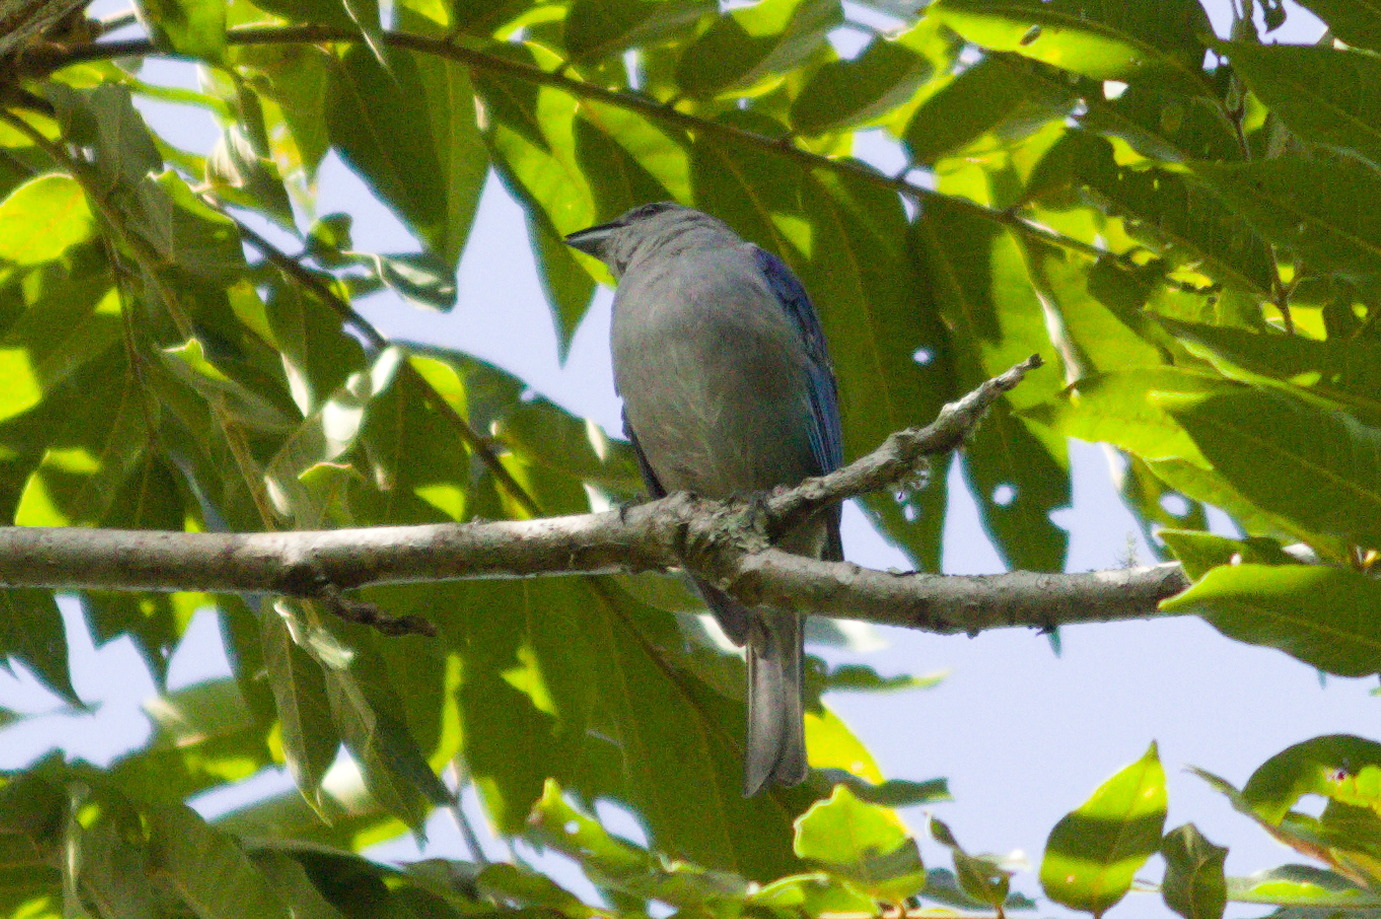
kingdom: Animalia
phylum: Chordata
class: Aves
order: Passeriformes
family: Thraupidae
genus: Thraupis
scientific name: Thraupis cyanoptera
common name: Azure-shouldered tanager
